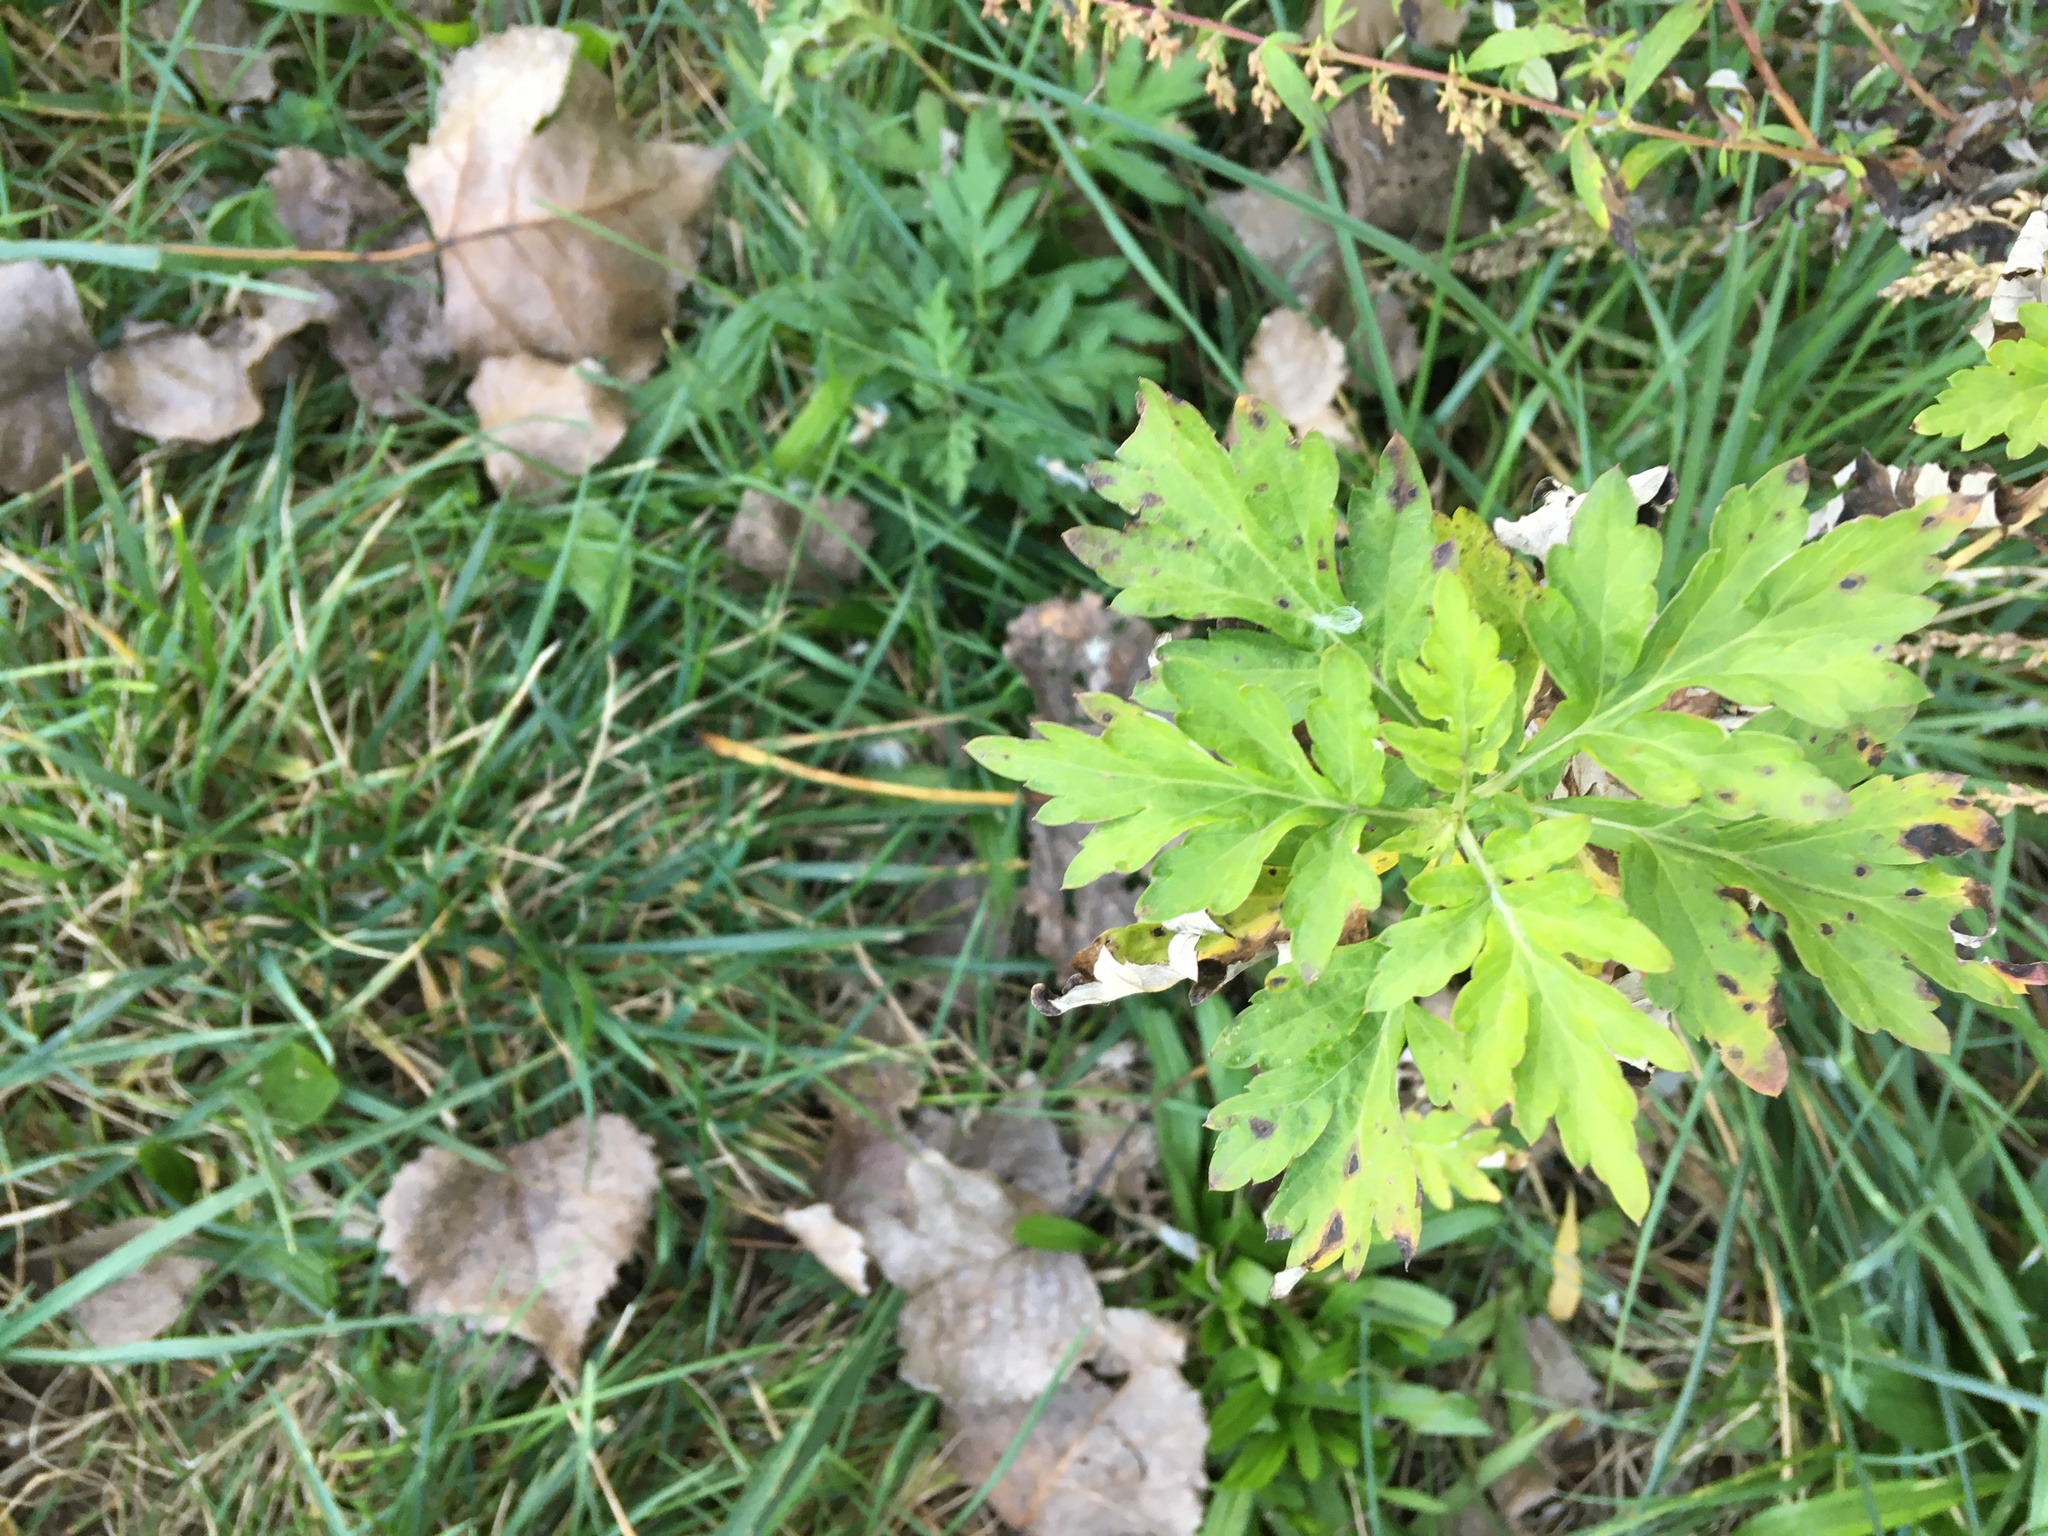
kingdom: Plantae
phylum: Tracheophyta
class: Magnoliopsida
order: Asterales
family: Asteraceae
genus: Artemisia
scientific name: Artemisia vulgaris
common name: Mugwort
